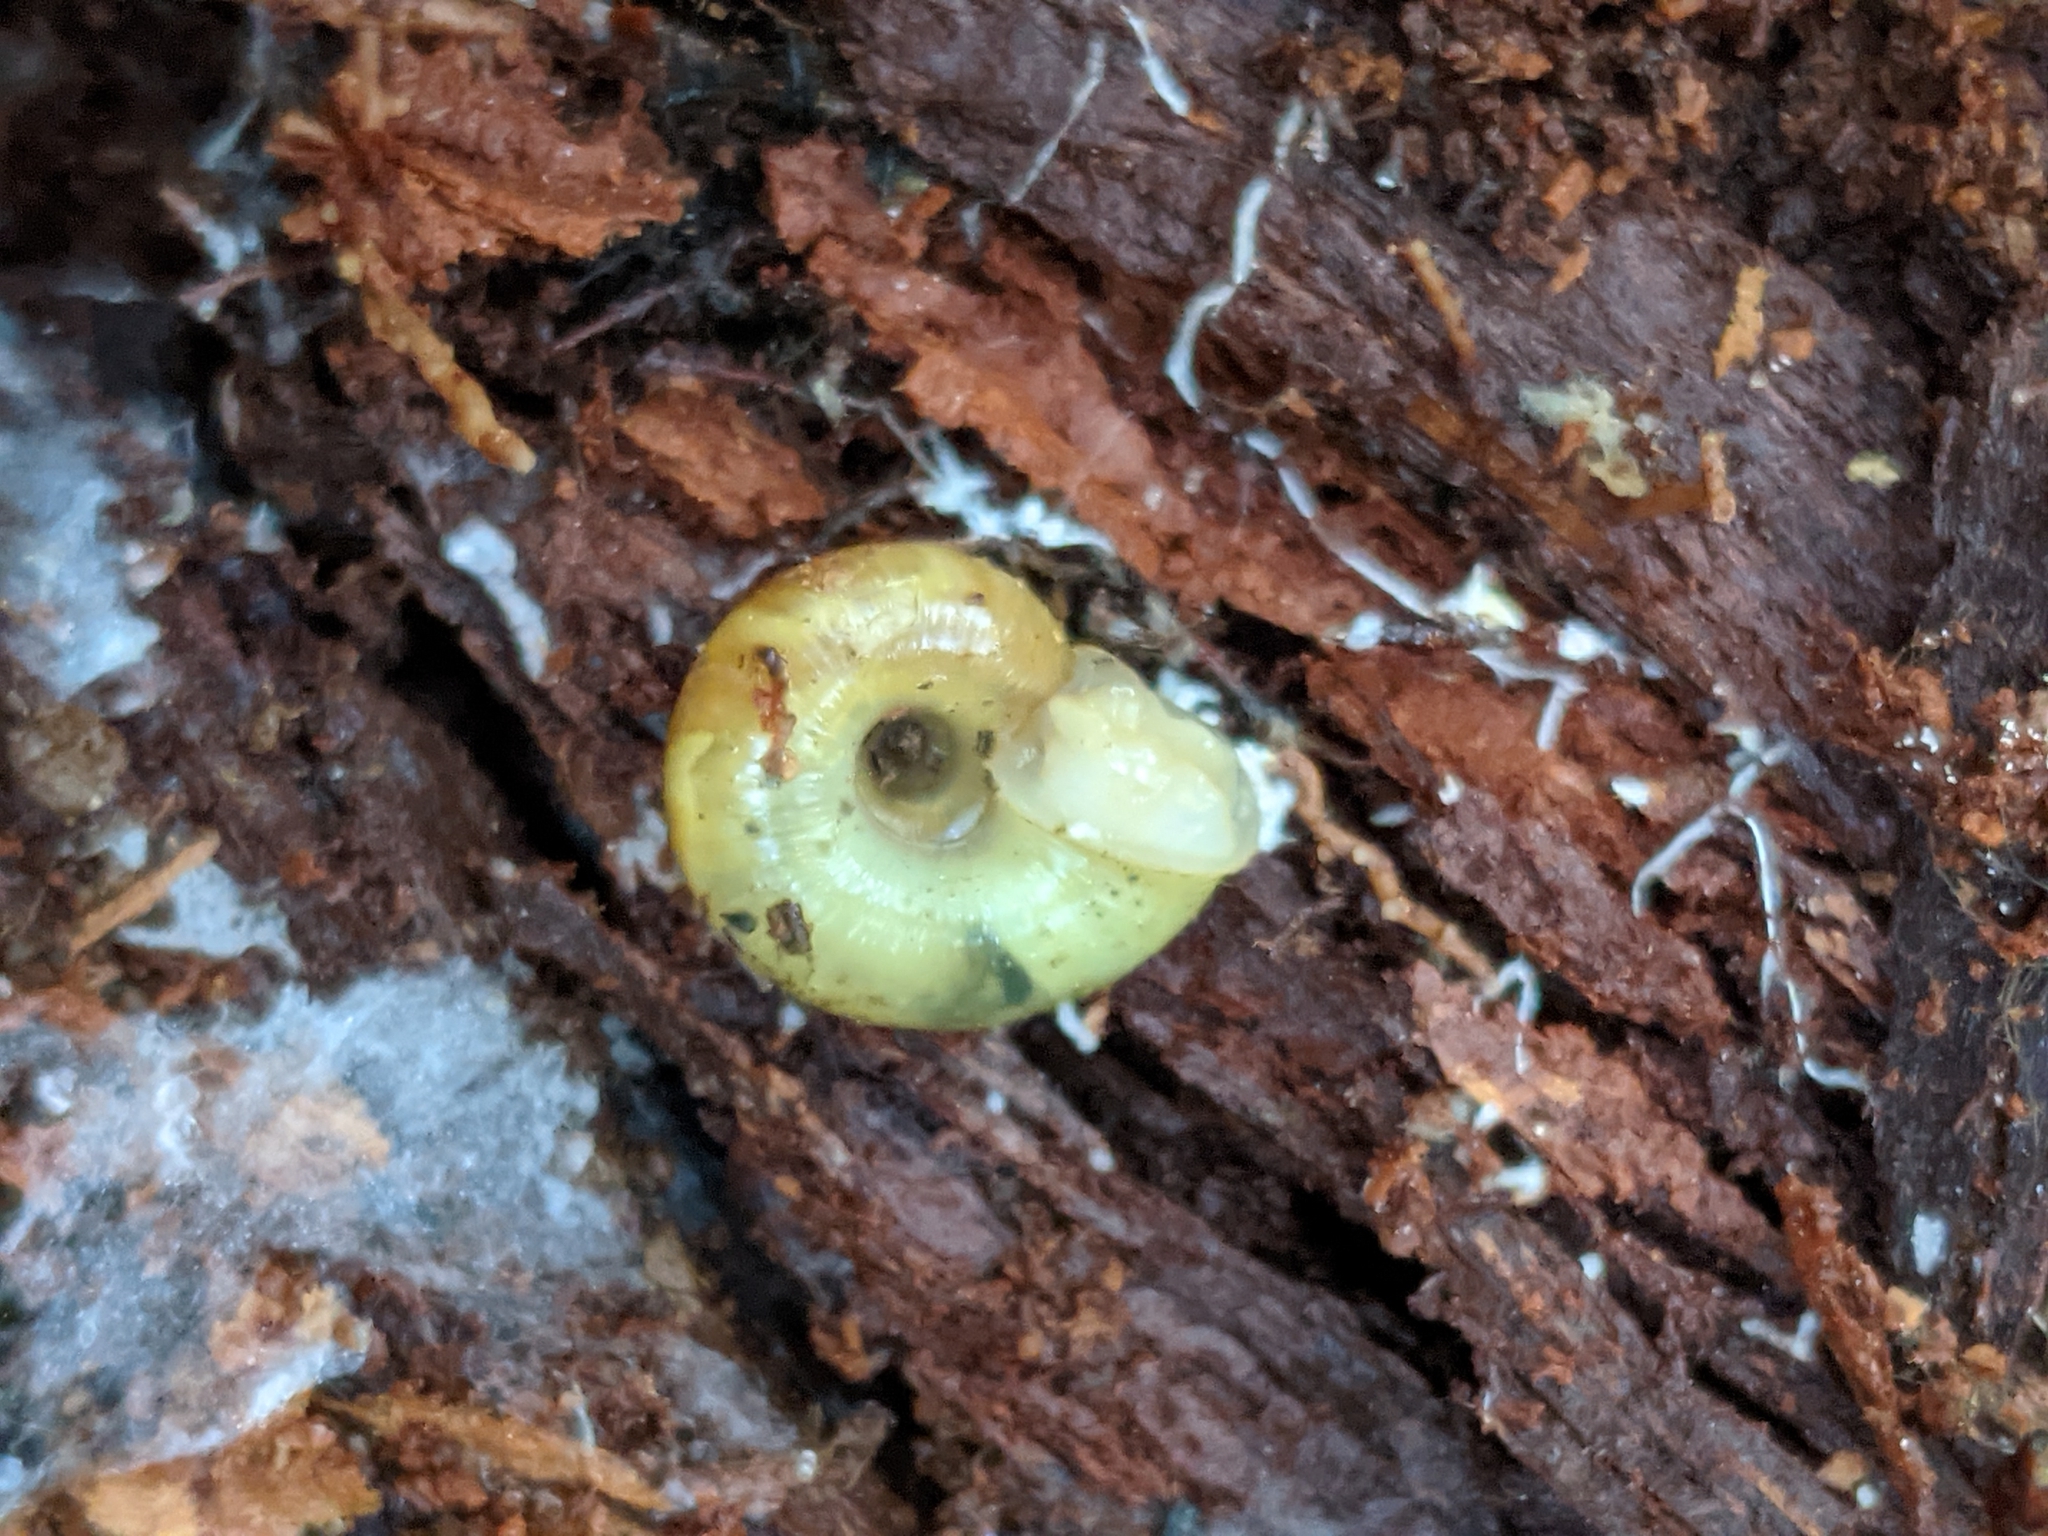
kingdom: Animalia
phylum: Mollusca
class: Gastropoda
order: Stylommatophora
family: Haplotrematidae
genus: Haplotrema
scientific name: Haplotrema vancouverense
